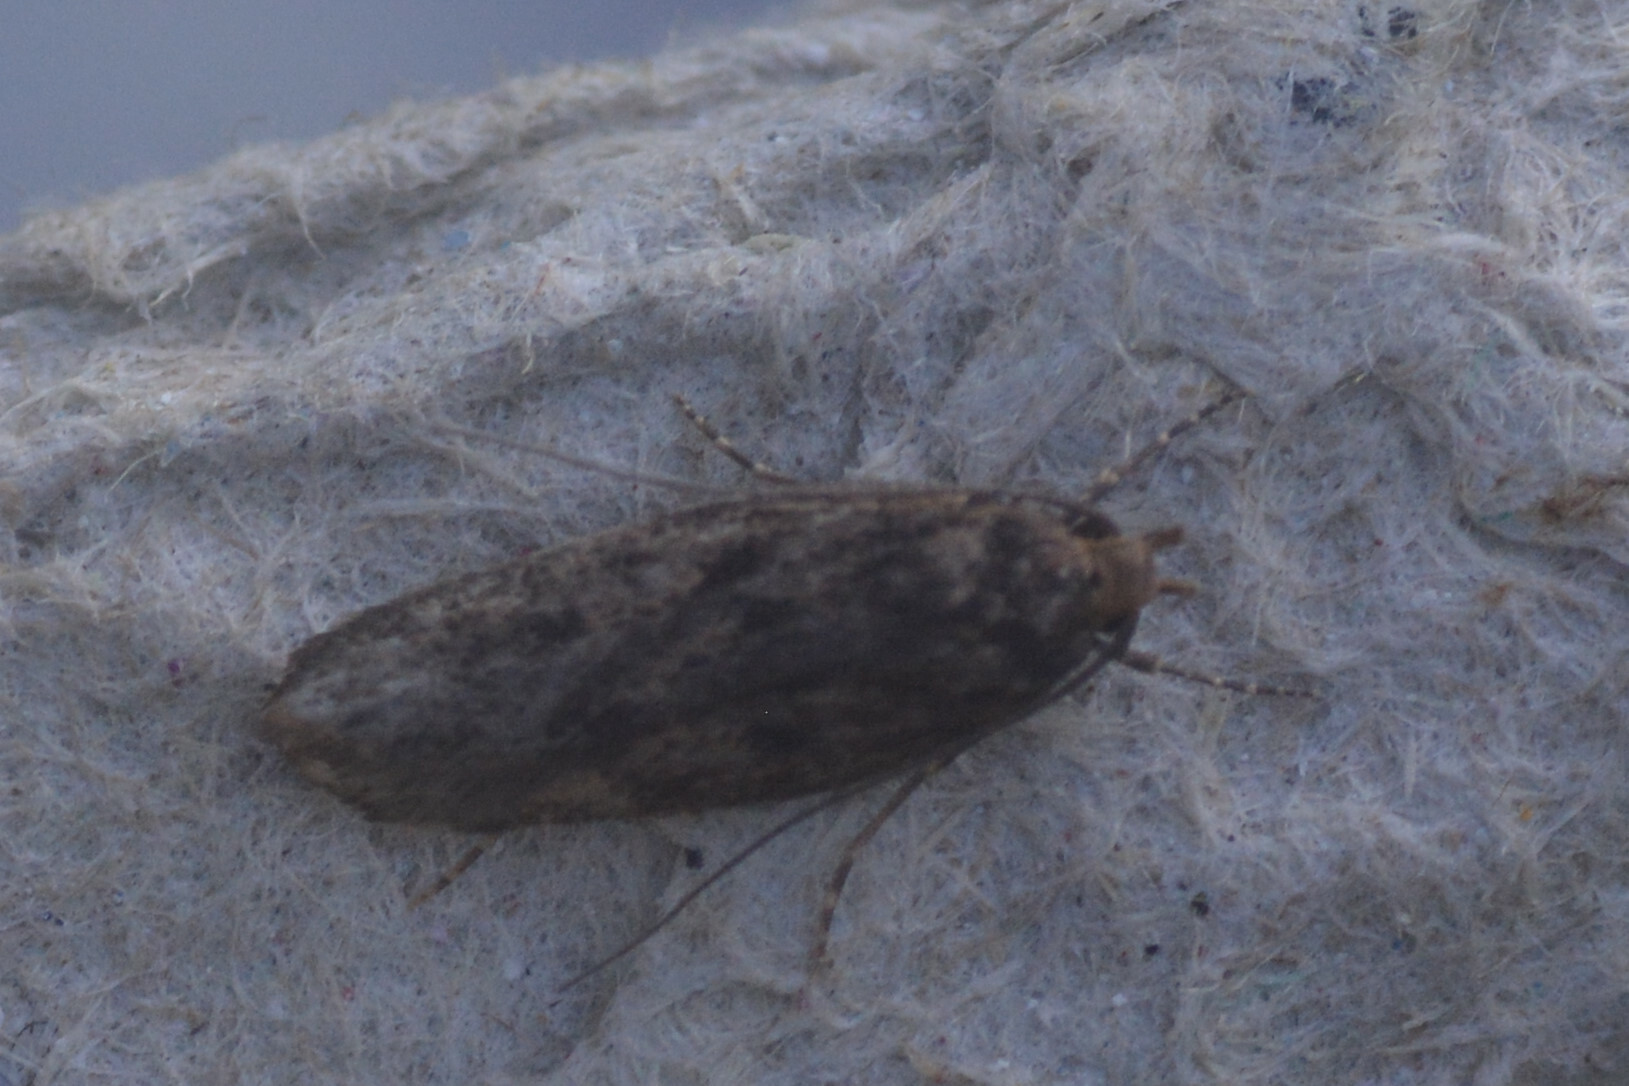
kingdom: Animalia
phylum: Arthropoda
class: Insecta
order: Lepidoptera
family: Oecophoridae
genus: Hofmannophila
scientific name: Hofmannophila pseudospretella
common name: Brown house moth
